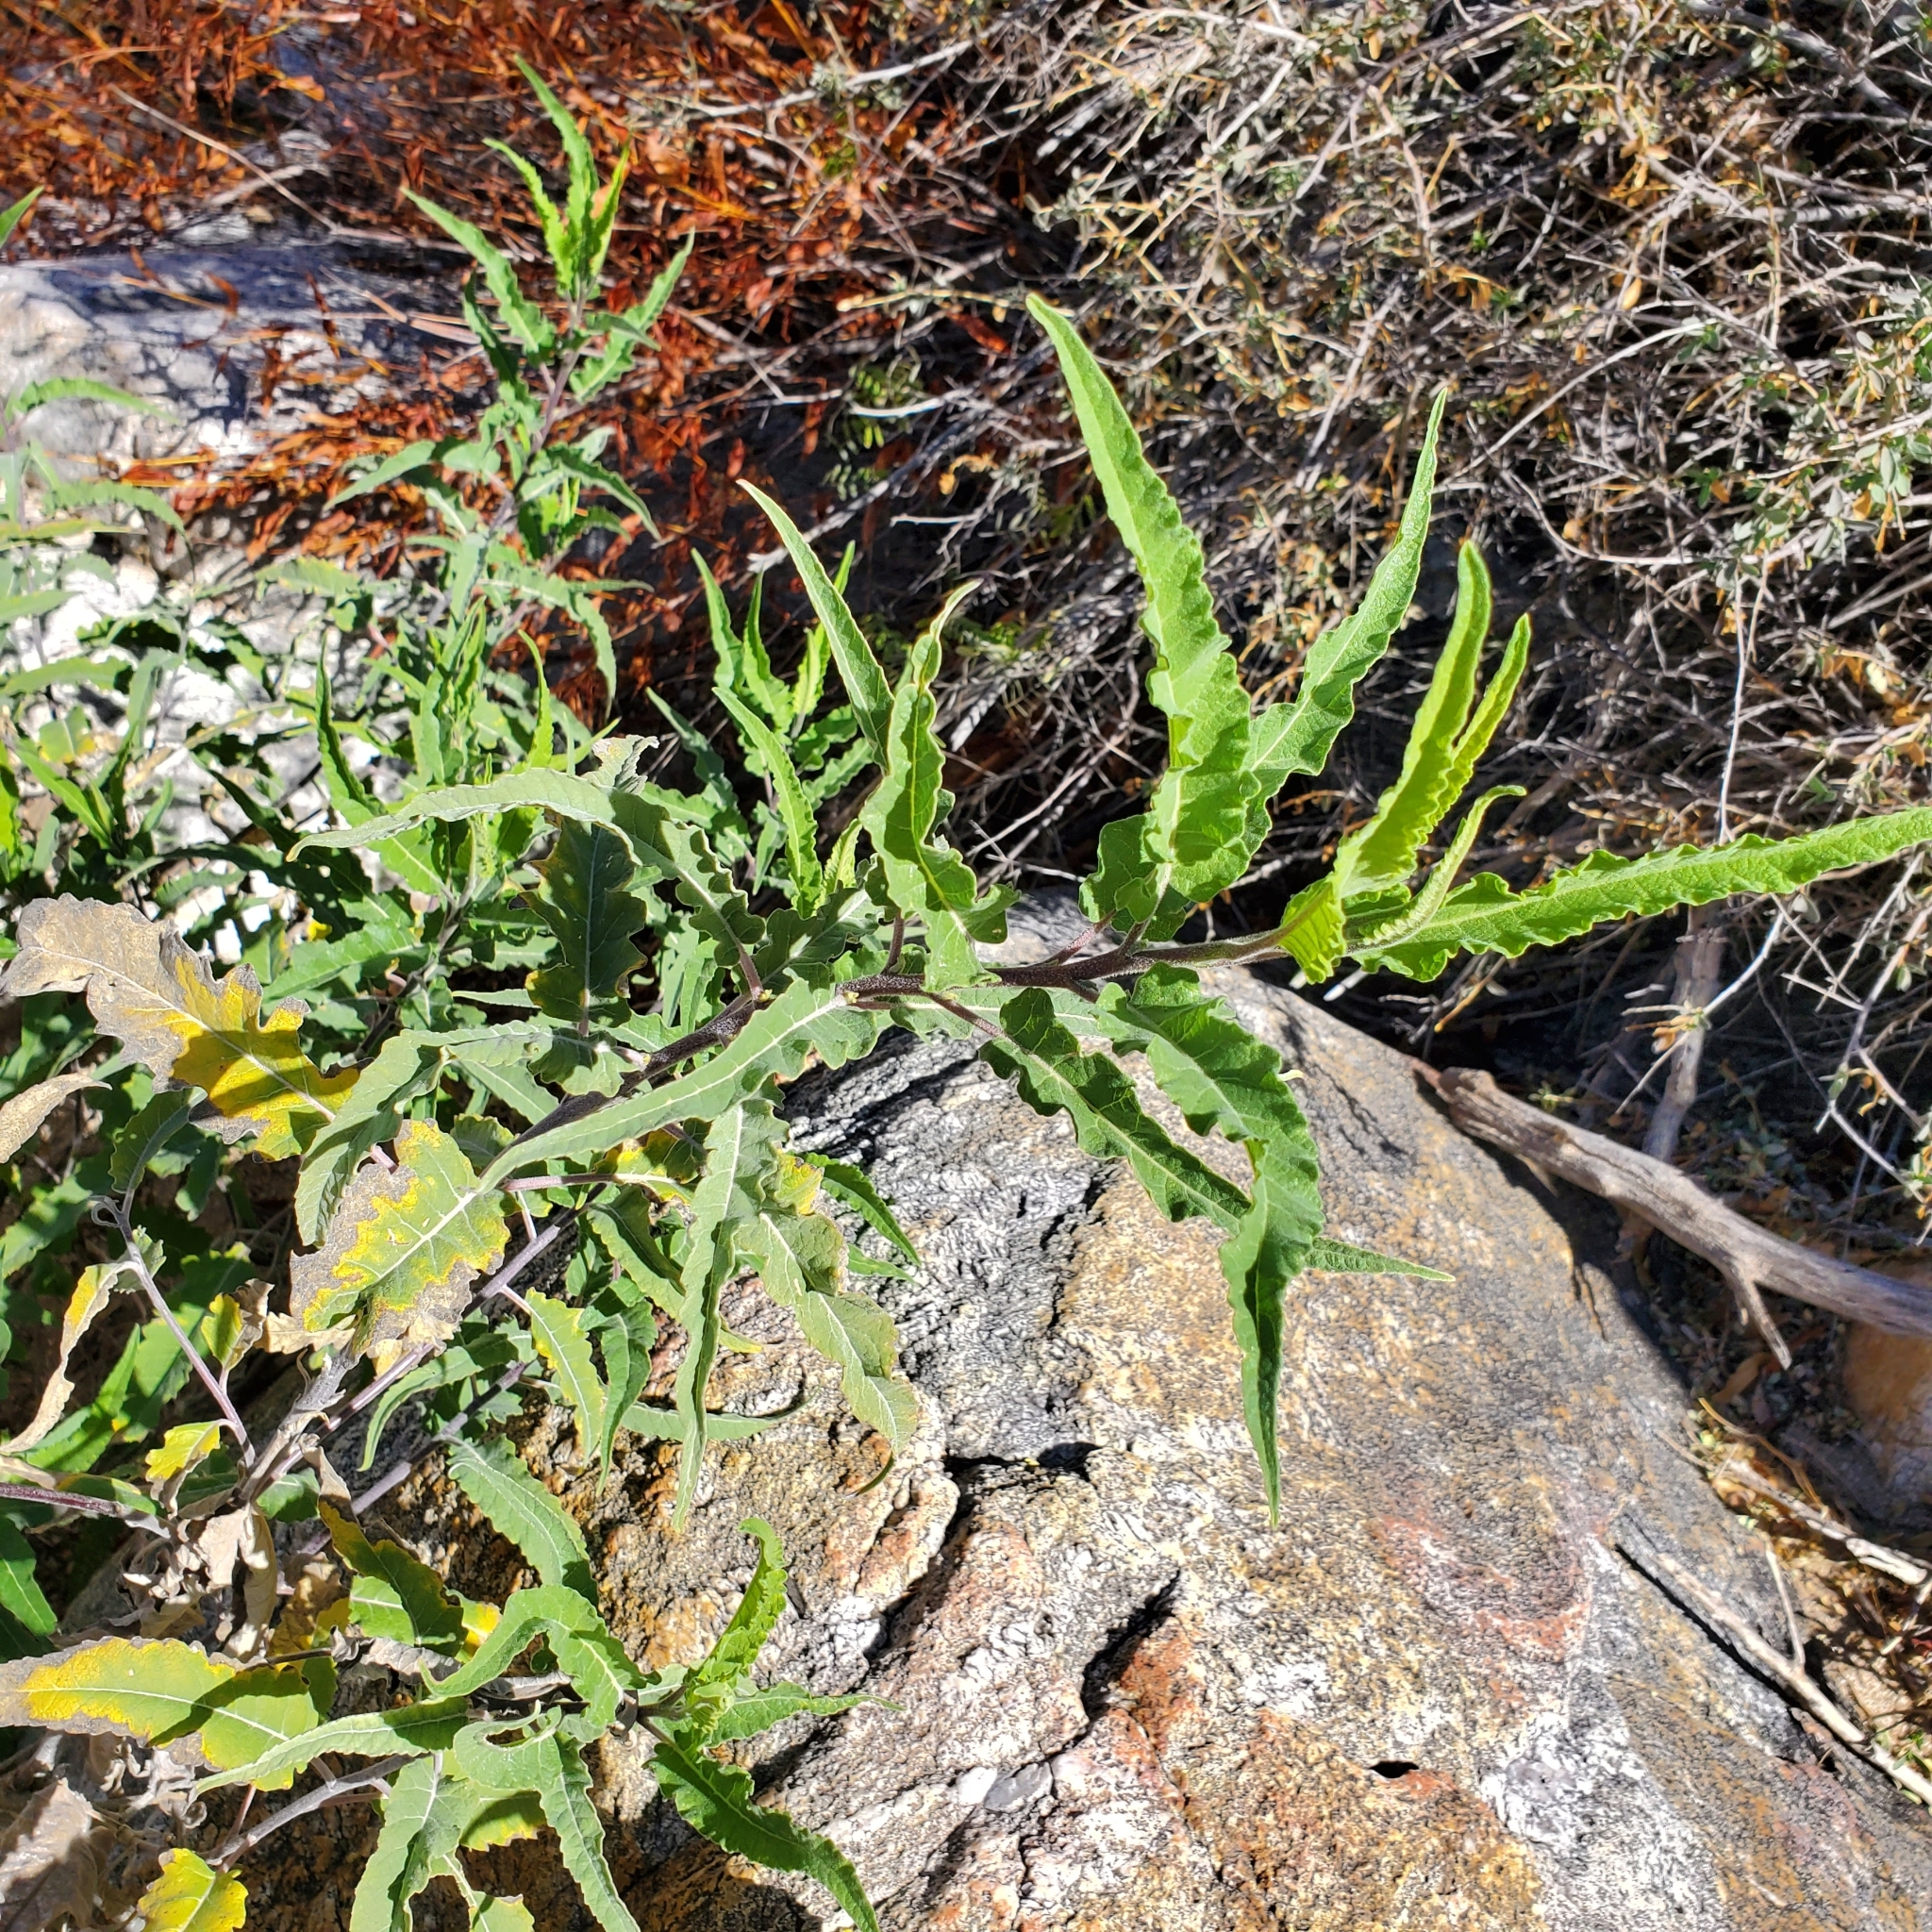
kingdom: Plantae
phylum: Tracheophyta
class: Magnoliopsida
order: Asterales
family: Asteraceae
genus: Ambrosia
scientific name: Ambrosia ambrosioides
